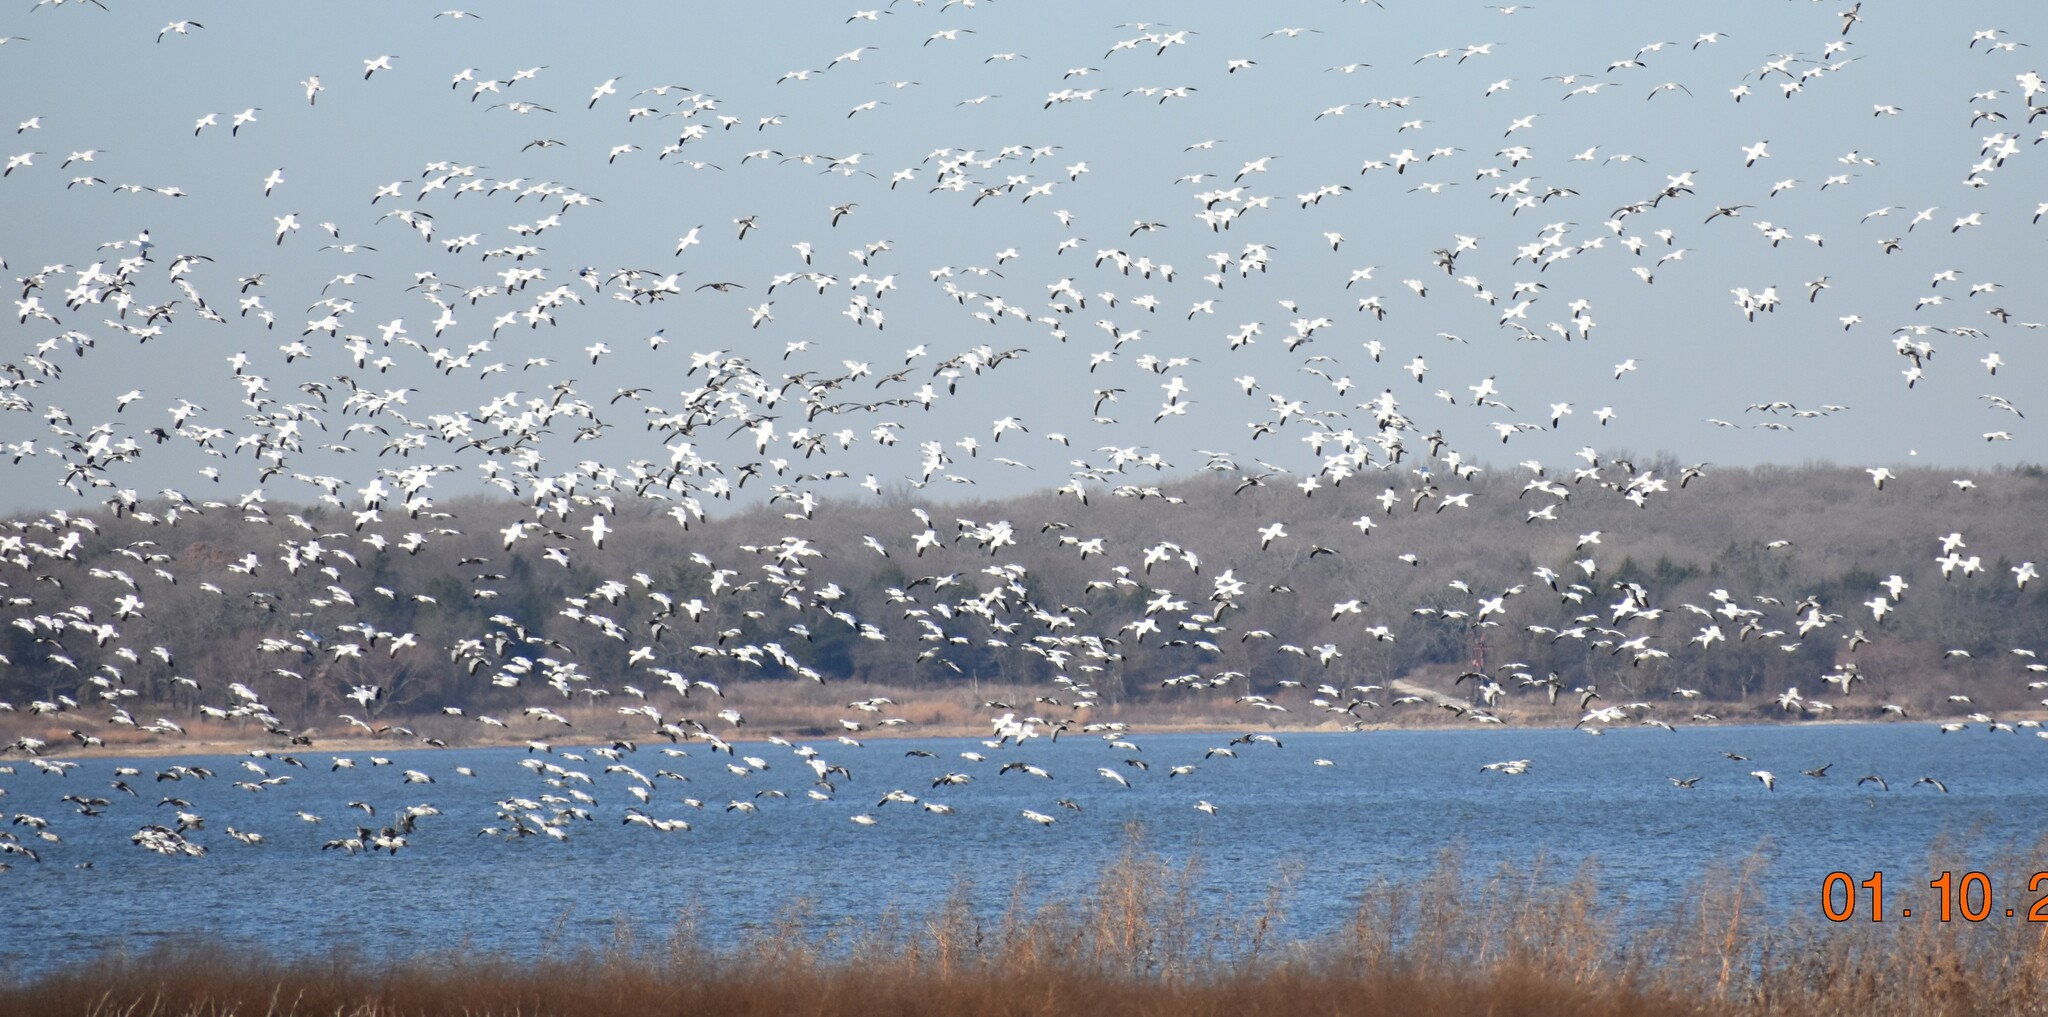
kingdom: Animalia
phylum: Chordata
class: Aves
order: Anseriformes
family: Anatidae
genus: Anser
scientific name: Anser caerulescens
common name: Snow goose
